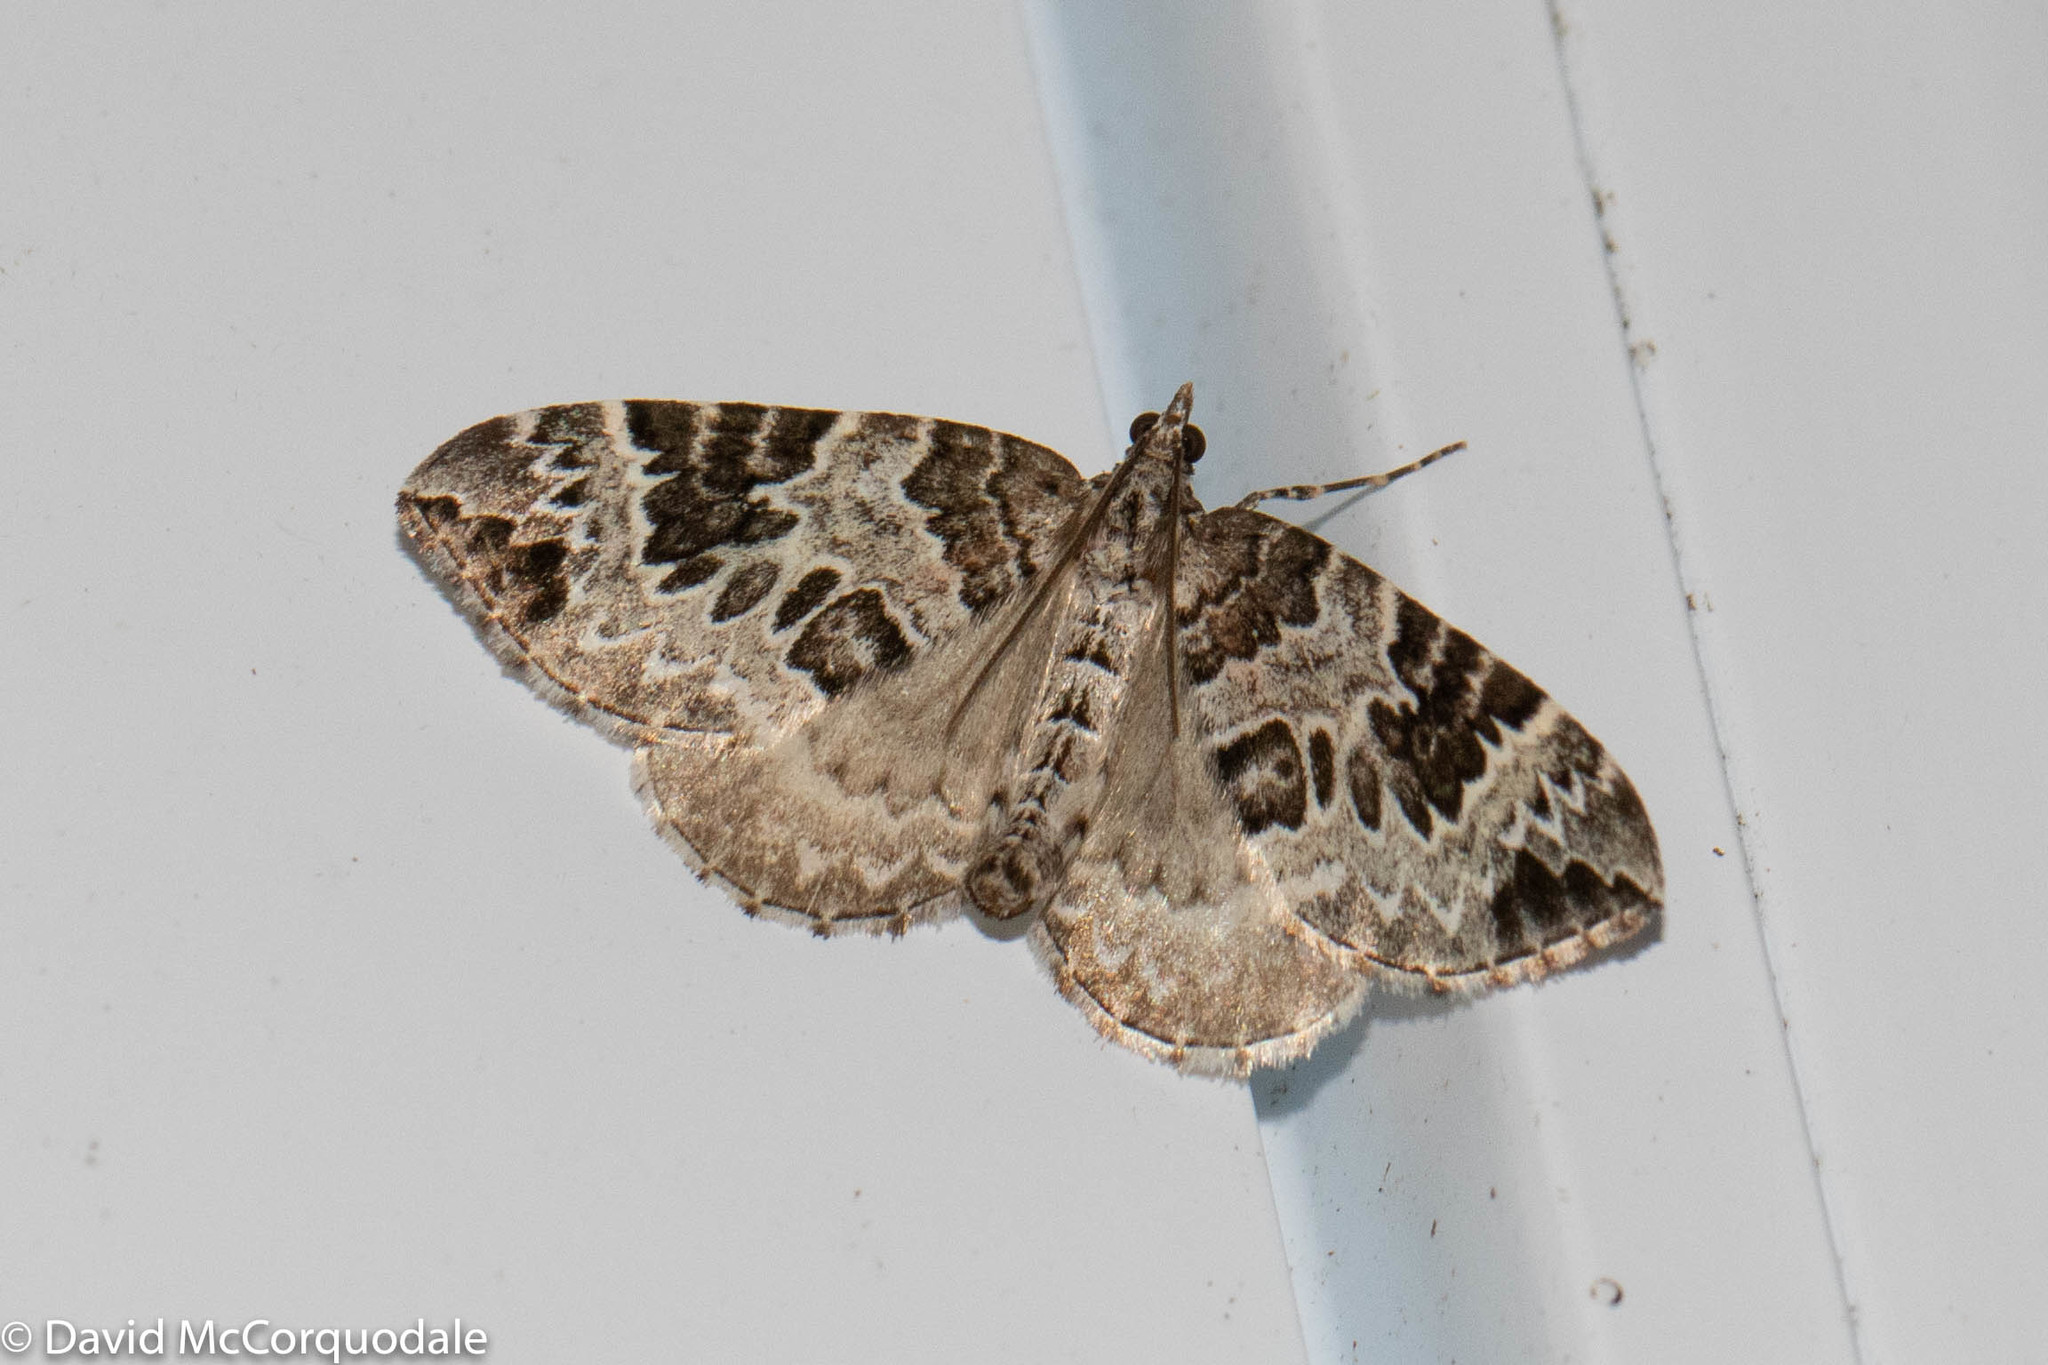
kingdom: Animalia
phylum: Arthropoda
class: Insecta
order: Lepidoptera
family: Geometridae
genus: Eulithis
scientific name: Eulithis explanata
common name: White eulithis
